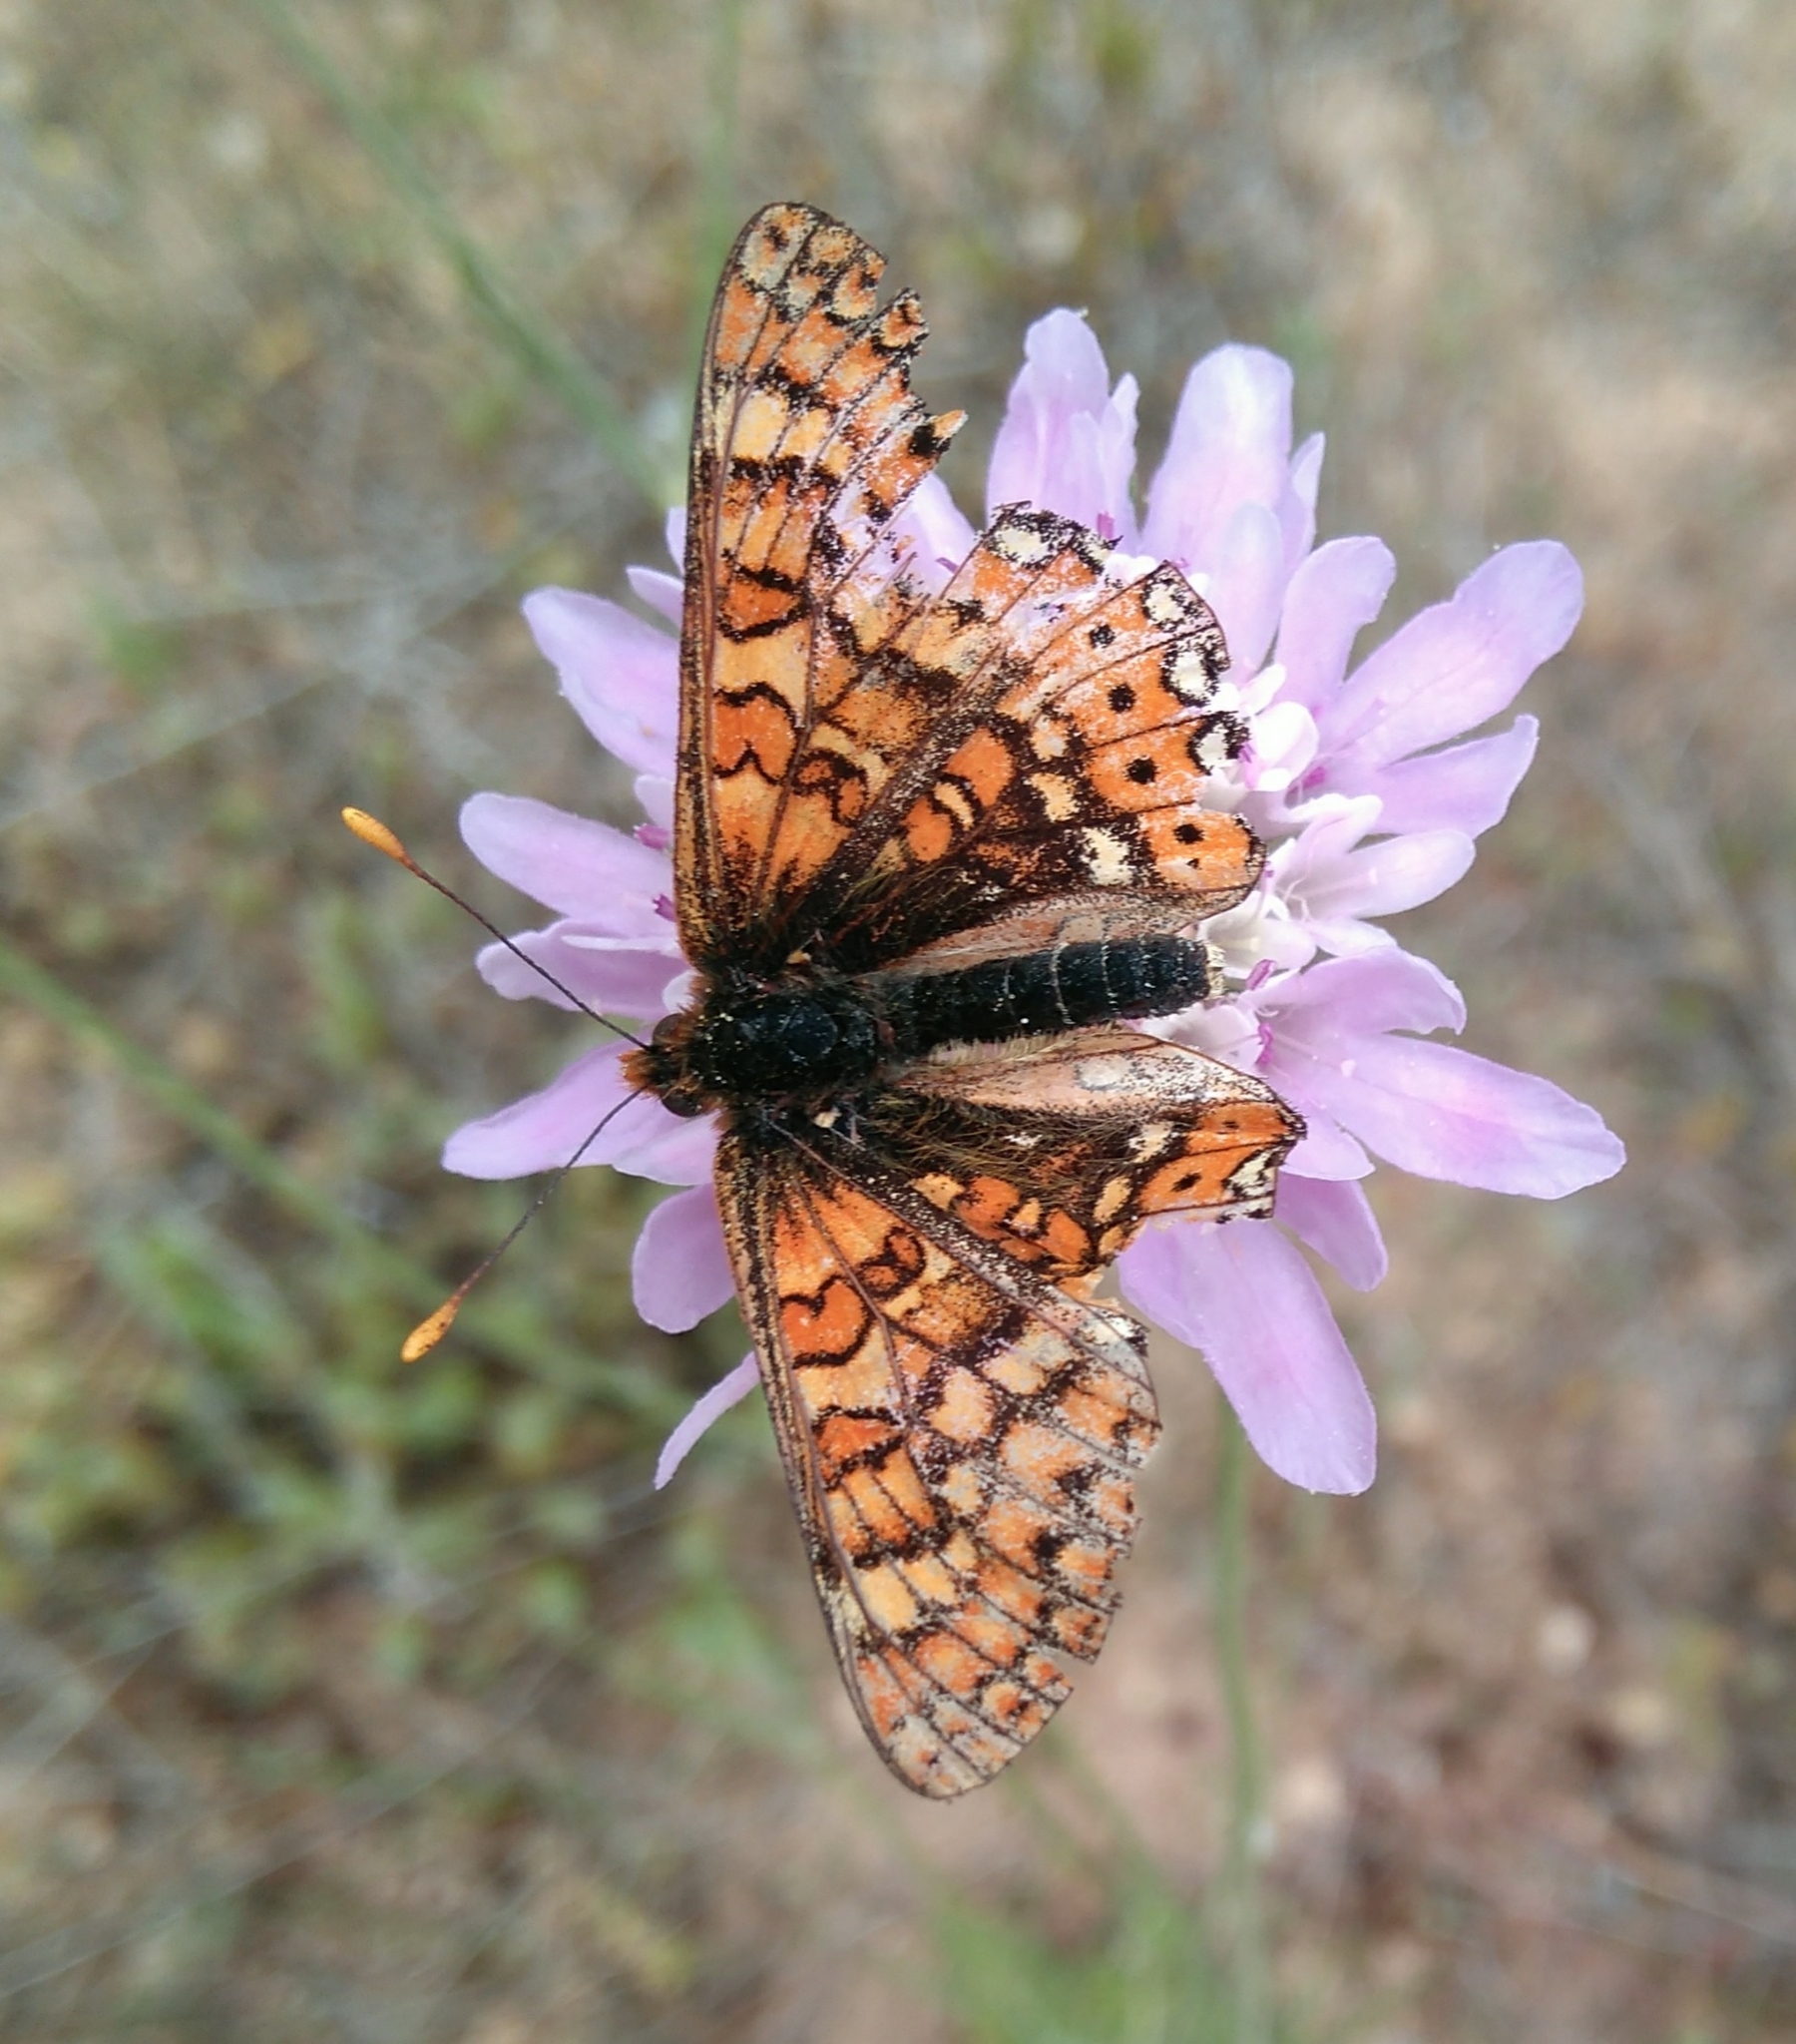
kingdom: Animalia
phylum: Arthropoda
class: Insecta
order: Lepidoptera
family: Nymphalidae
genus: Euphydryas
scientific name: Euphydryas aurinia
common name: Marsh fritillary
